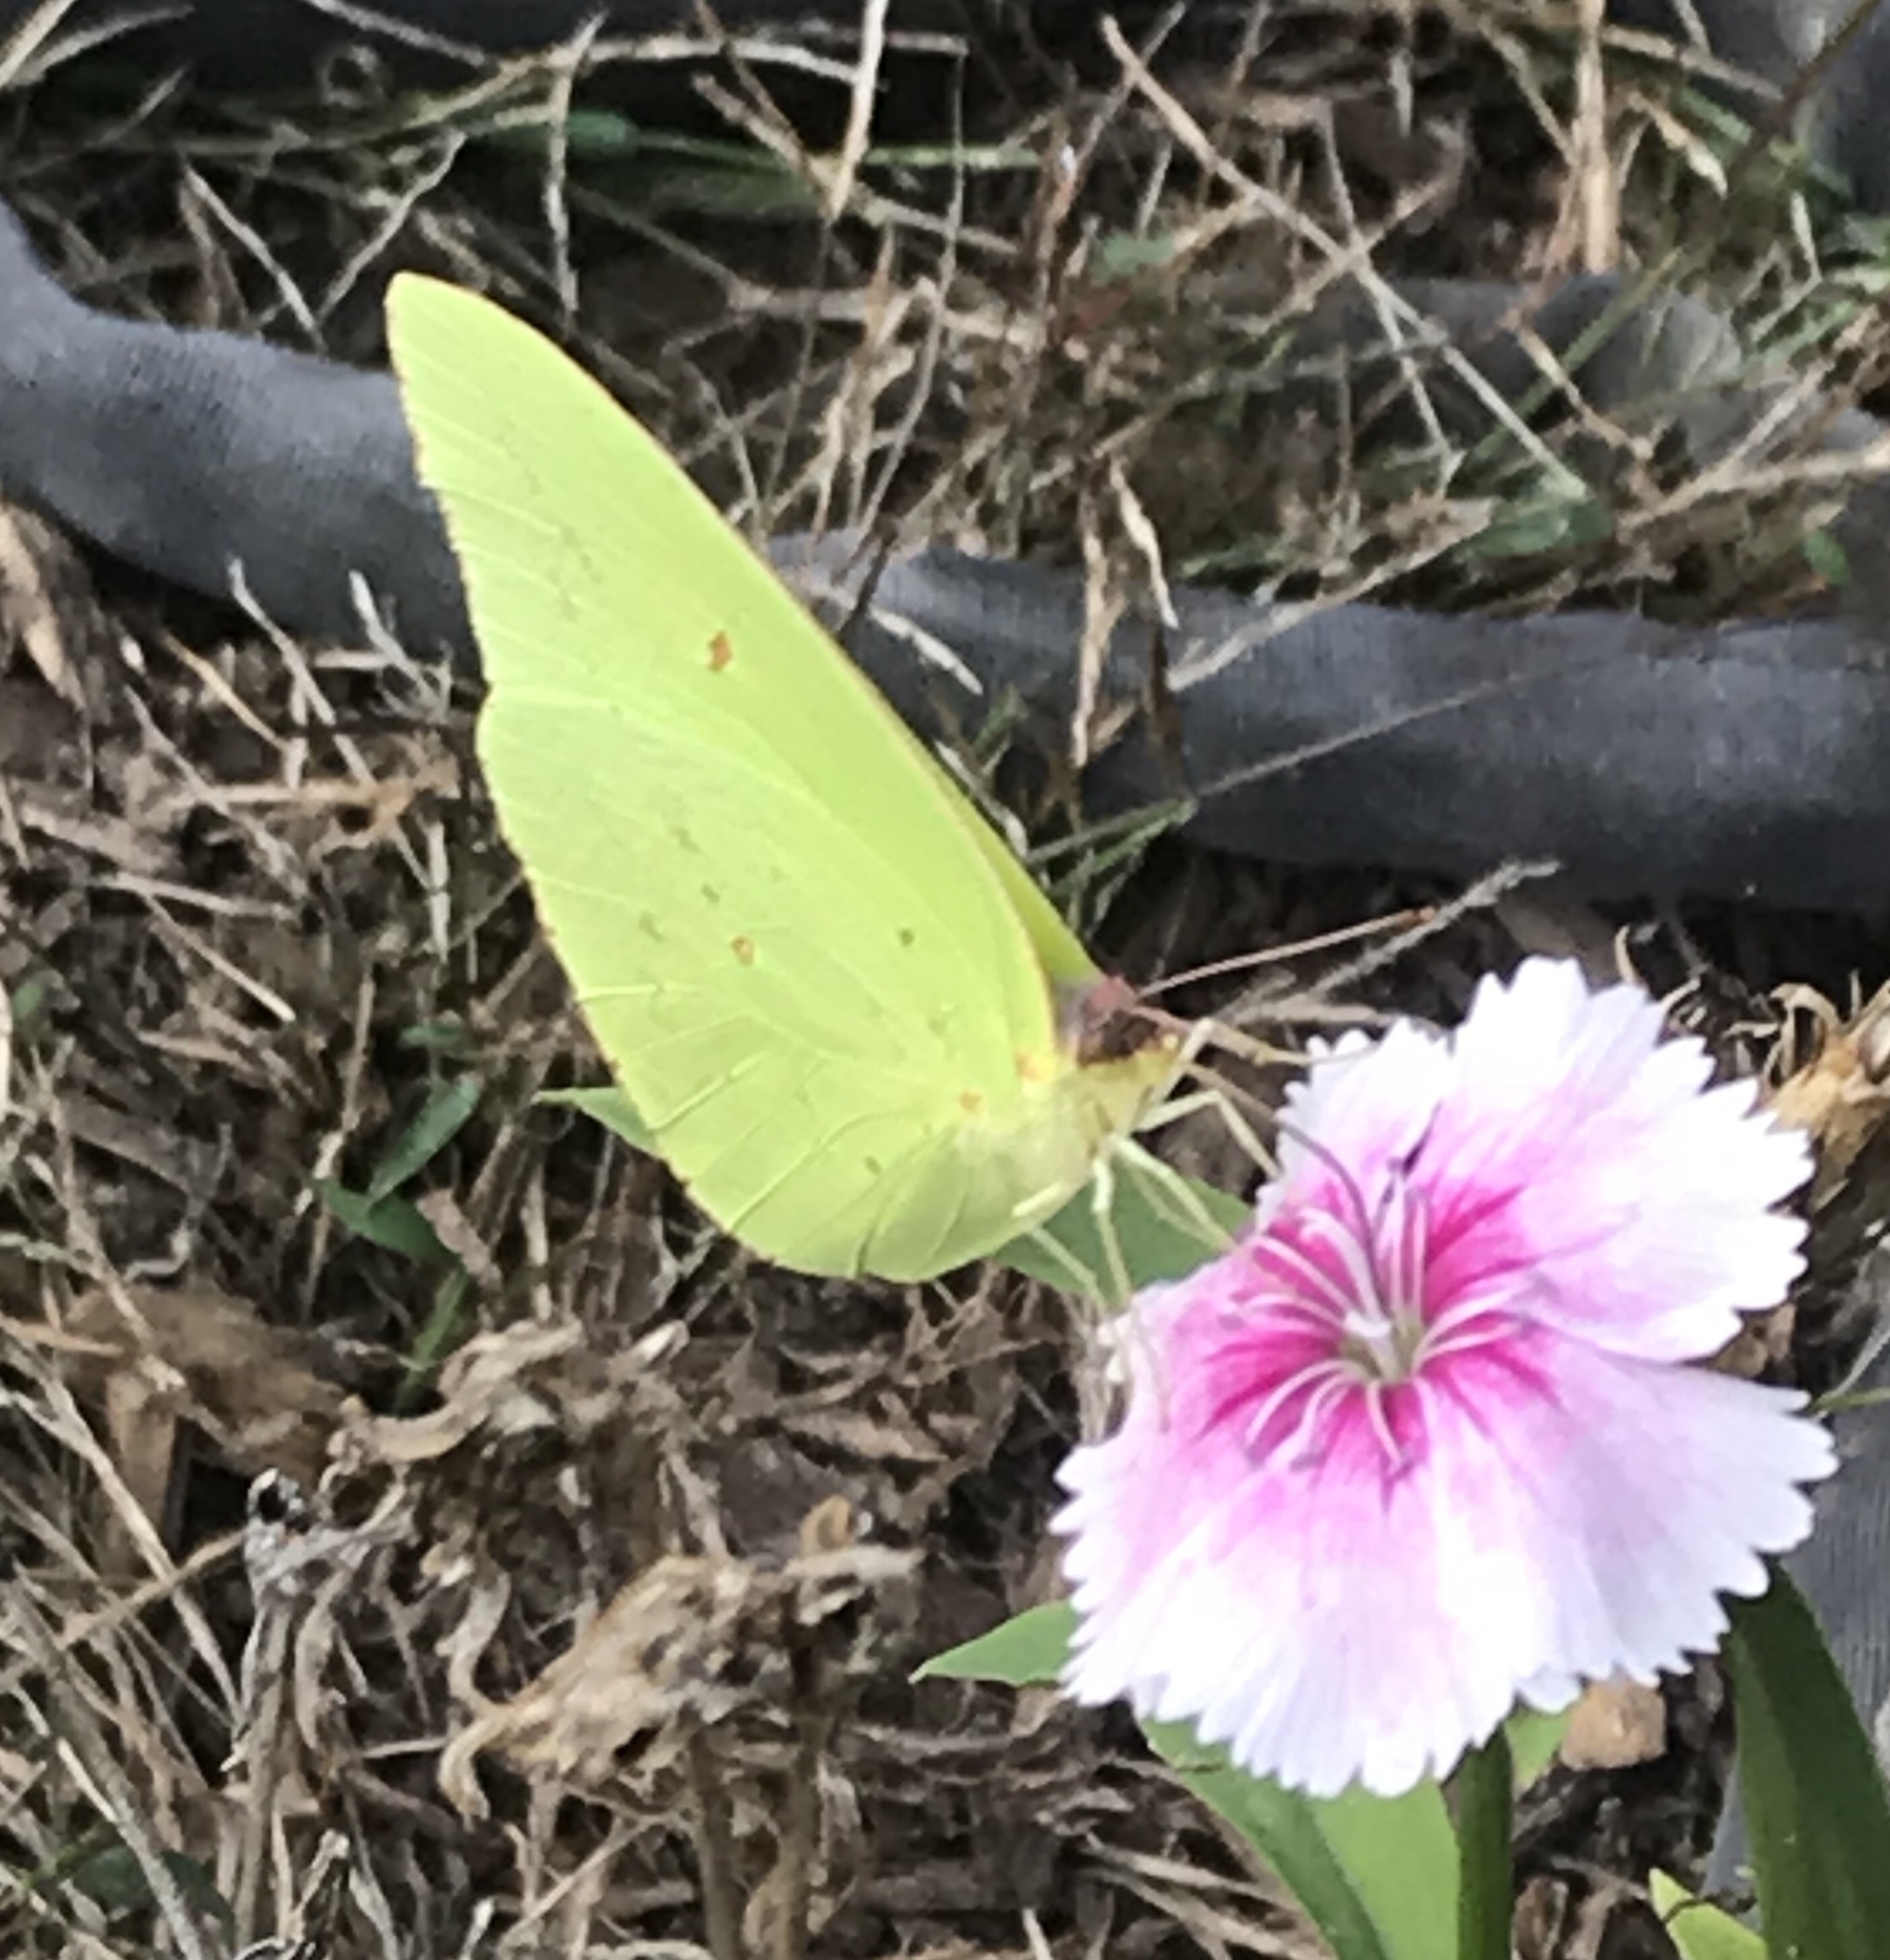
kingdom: Animalia
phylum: Arthropoda
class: Insecta
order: Lepidoptera
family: Pieridae
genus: Phoebis
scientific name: Phoebis sennae
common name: Cloudless sulphur
